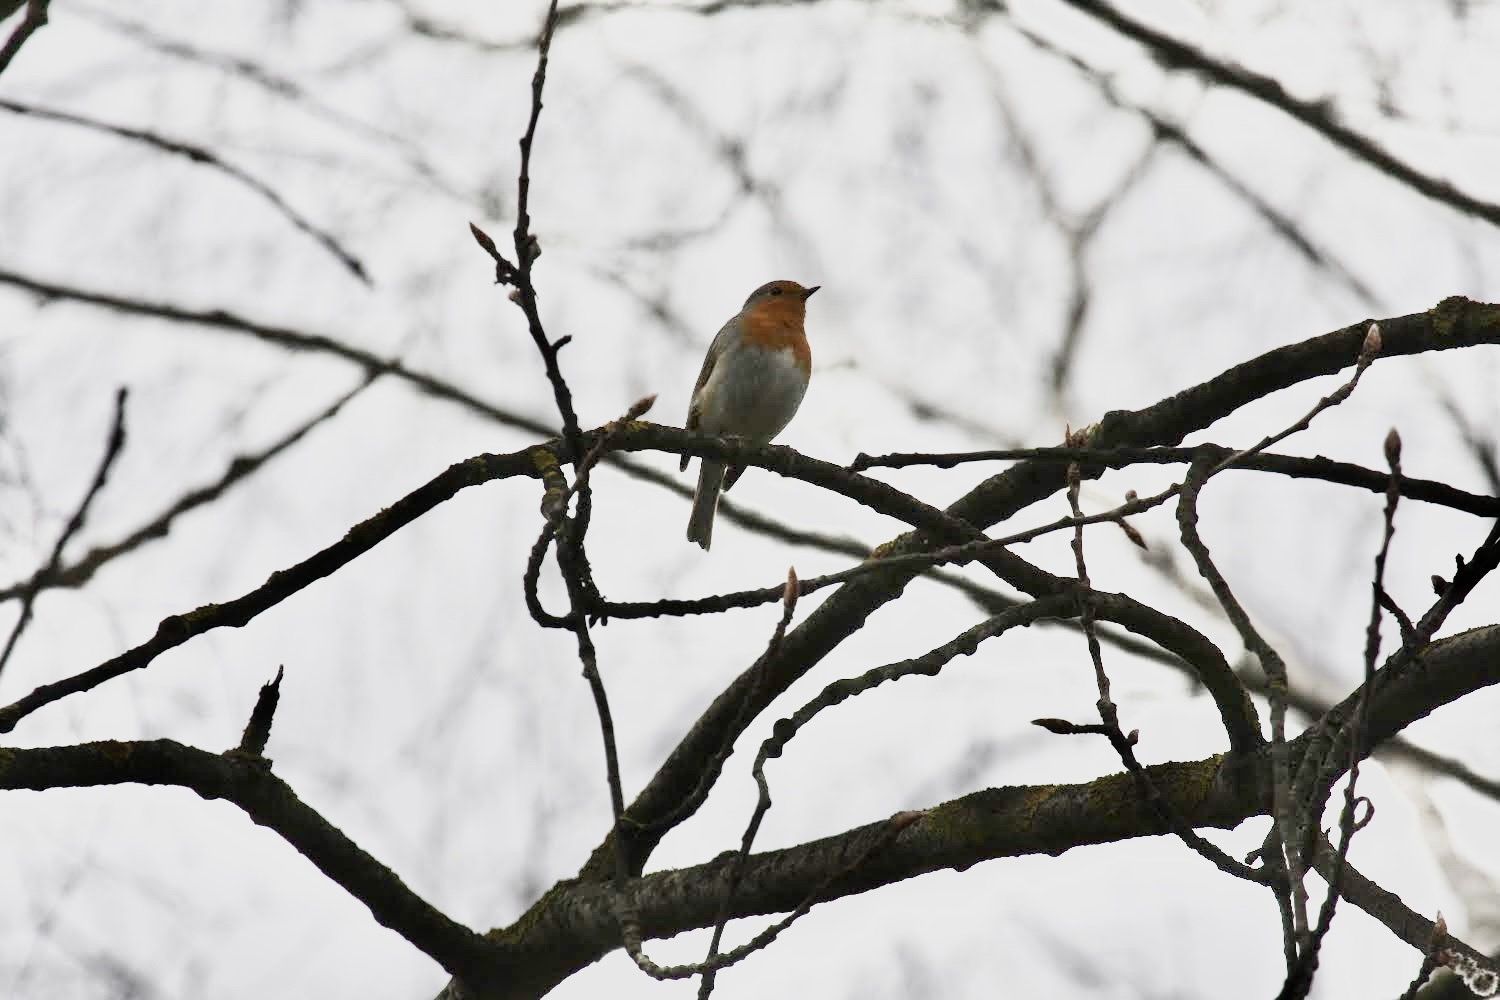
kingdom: Animalia
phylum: Chordata
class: Aves
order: Passeriformes
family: Muscicapidae
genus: Erithacus
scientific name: Erithacus rubecula
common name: European robin
